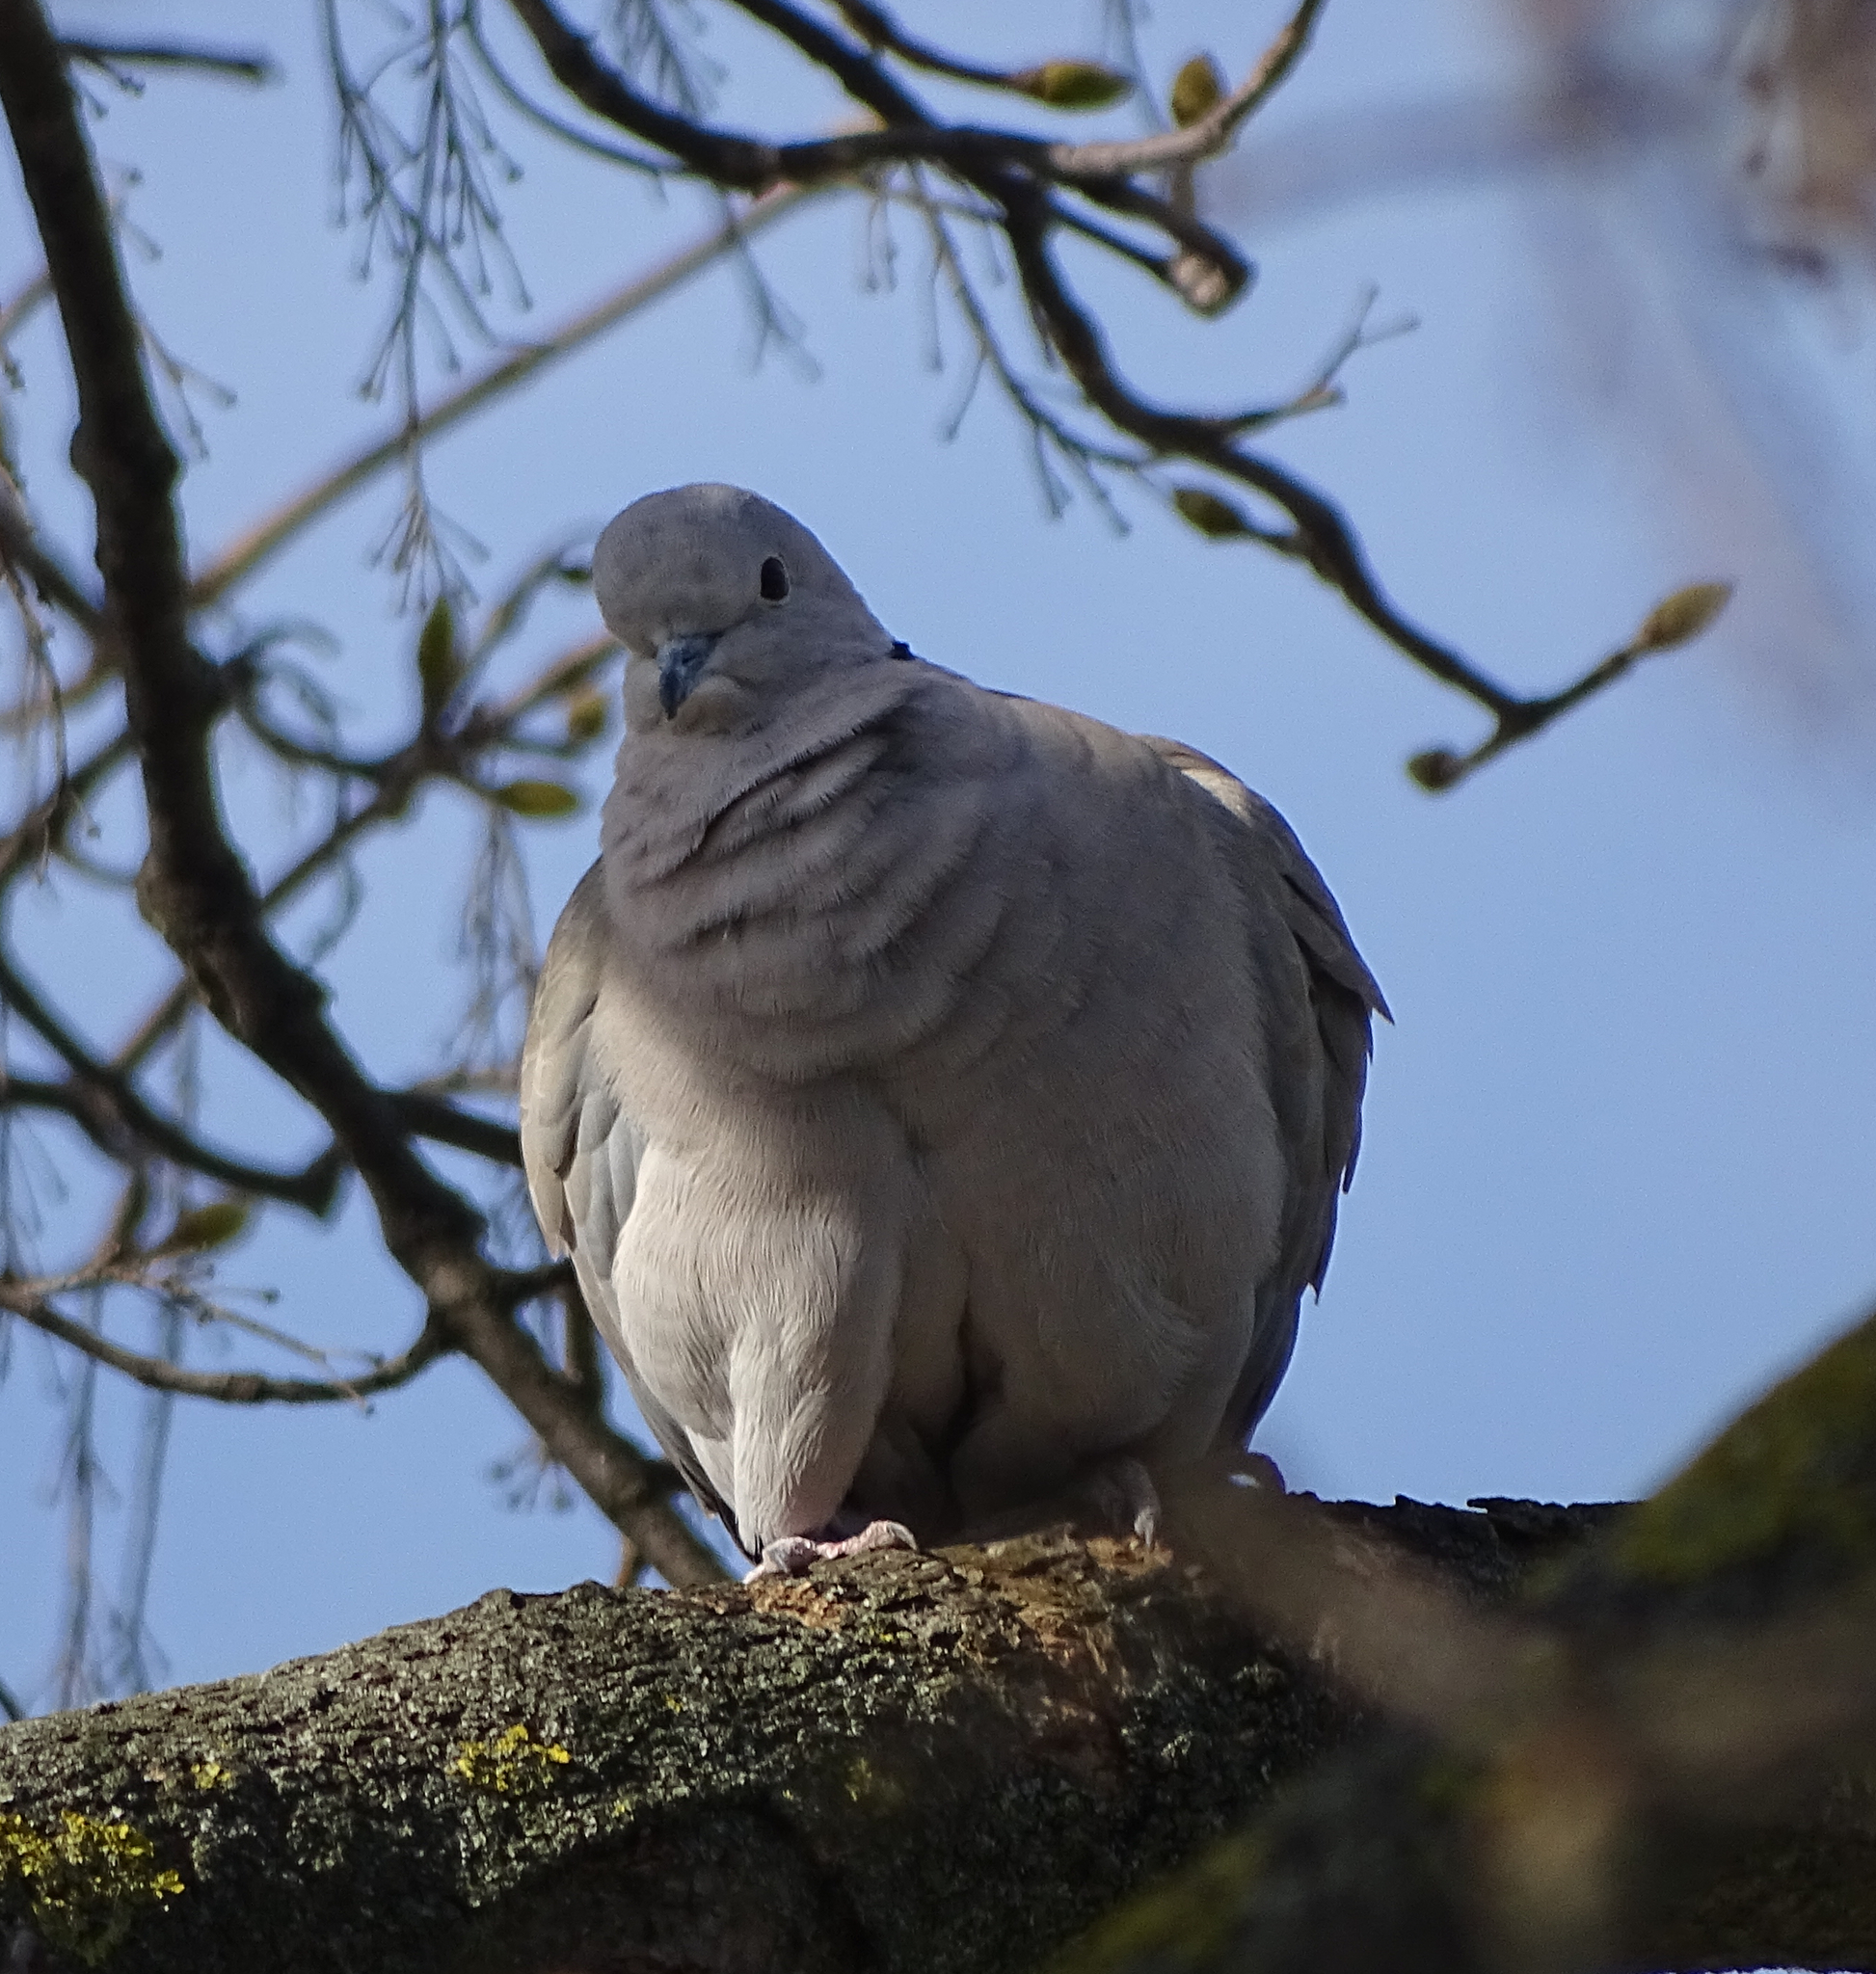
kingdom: Animalia
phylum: Chordata
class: Aves
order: Columbiformes
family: Columbidae
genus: Streptopelia
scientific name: Streptopelia decaocto
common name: Eurasian collared dove
